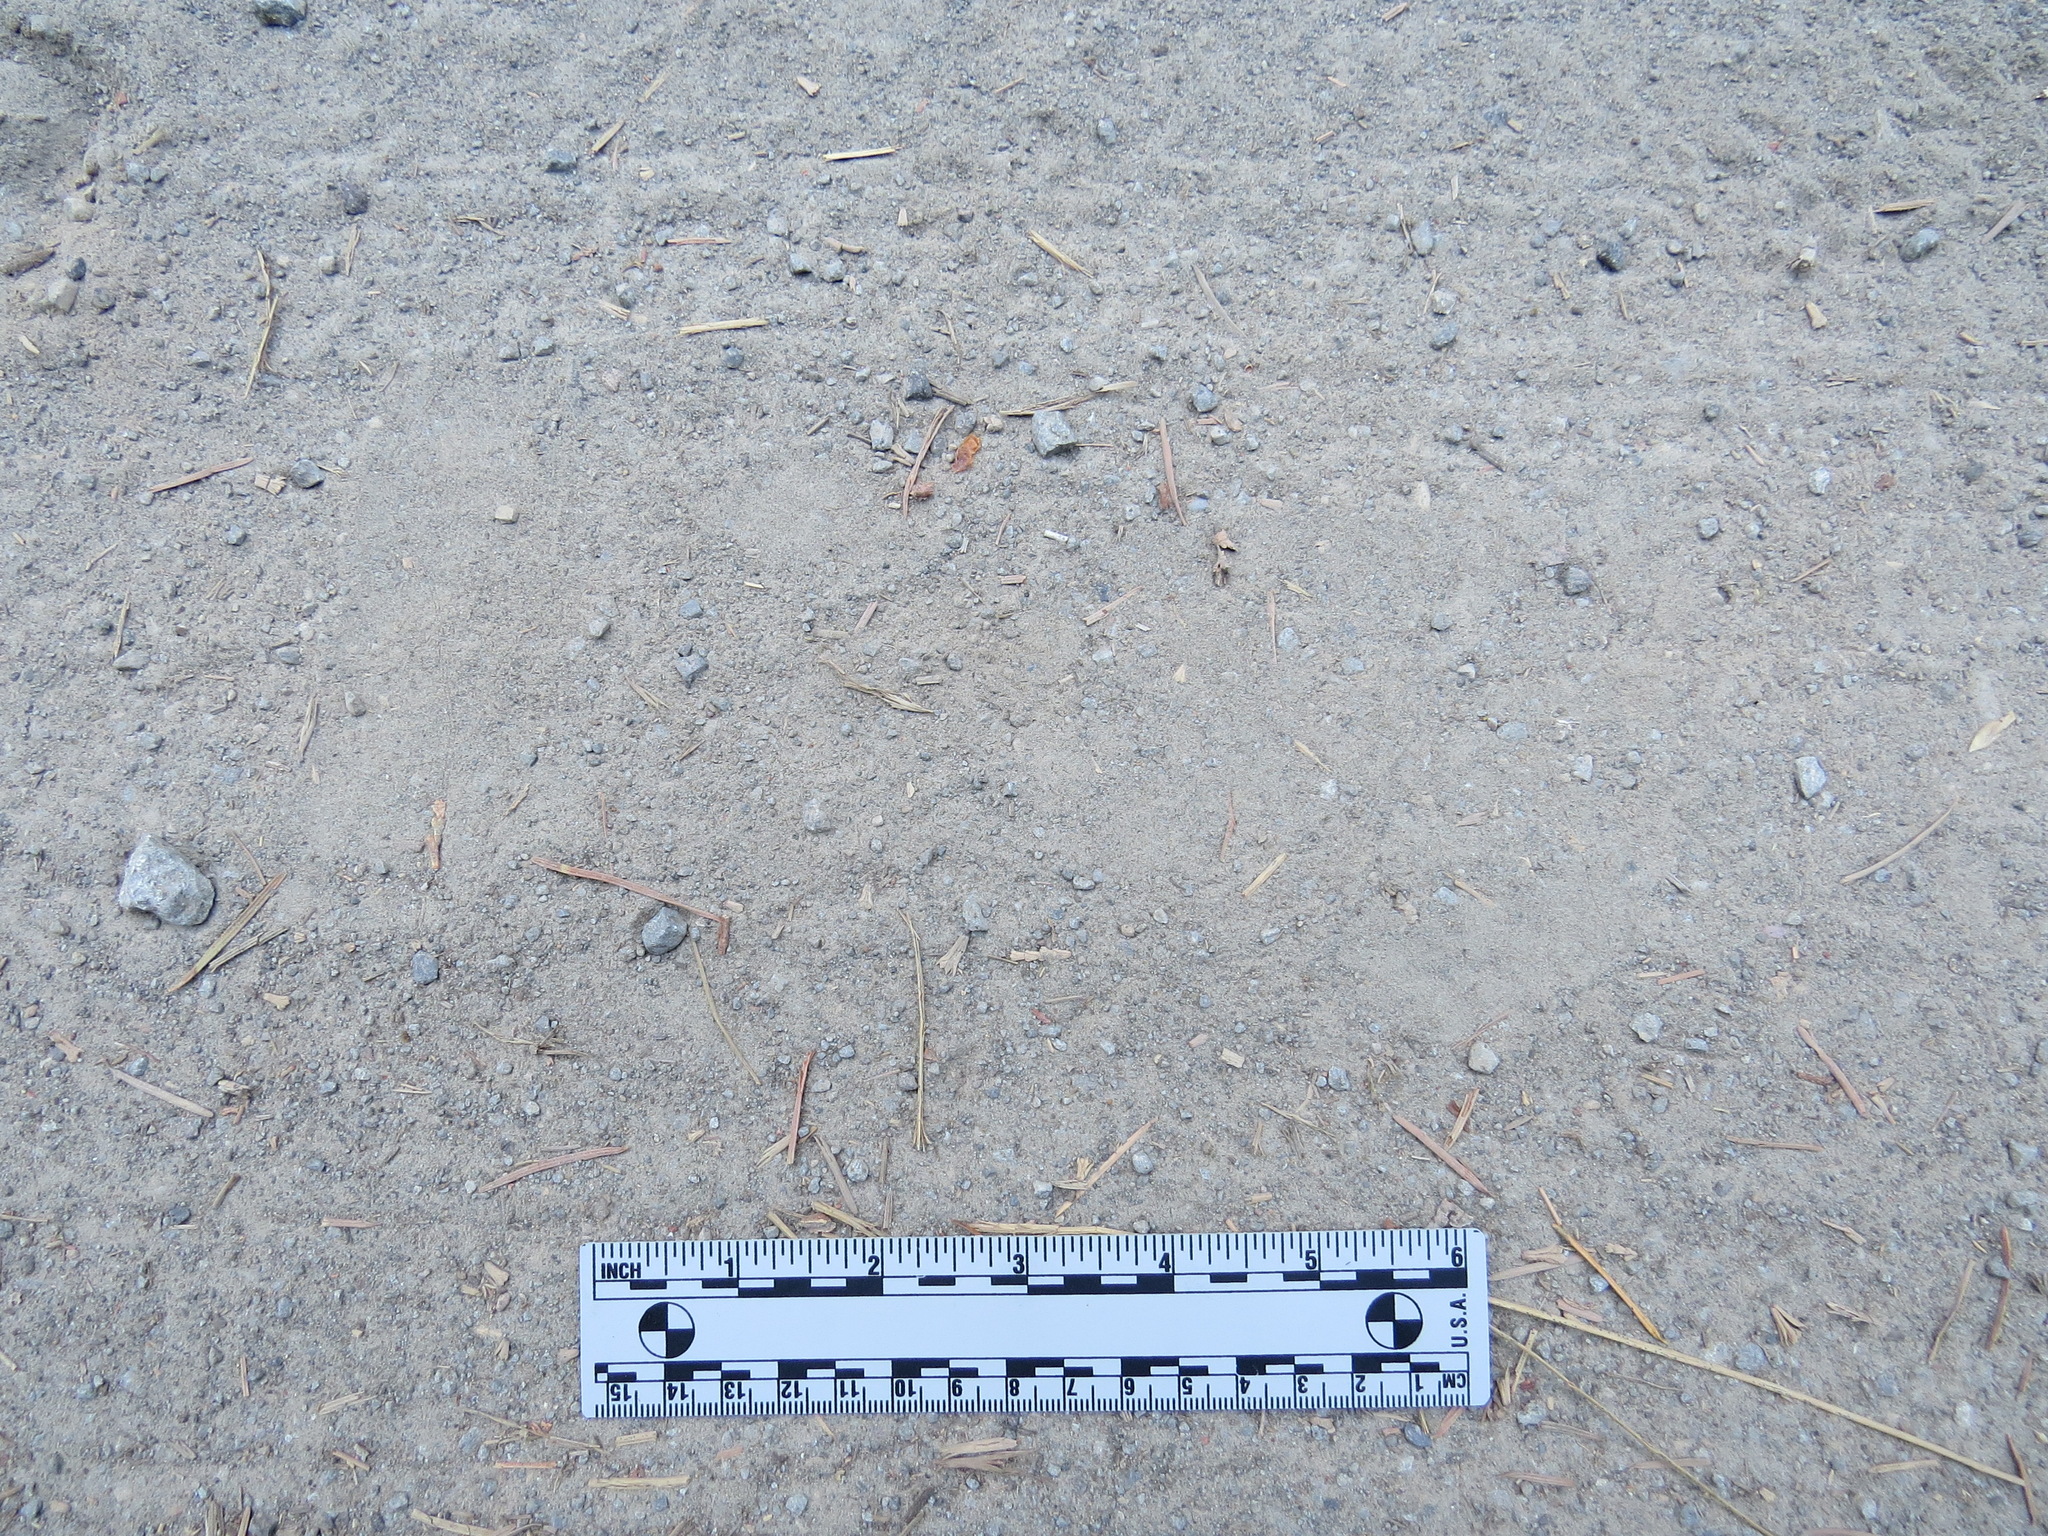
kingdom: Animalia
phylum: Chordata
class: Mammalia
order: Carnivora
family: Ursidae
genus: Ursus
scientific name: Ursus americanus
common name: American black bear
